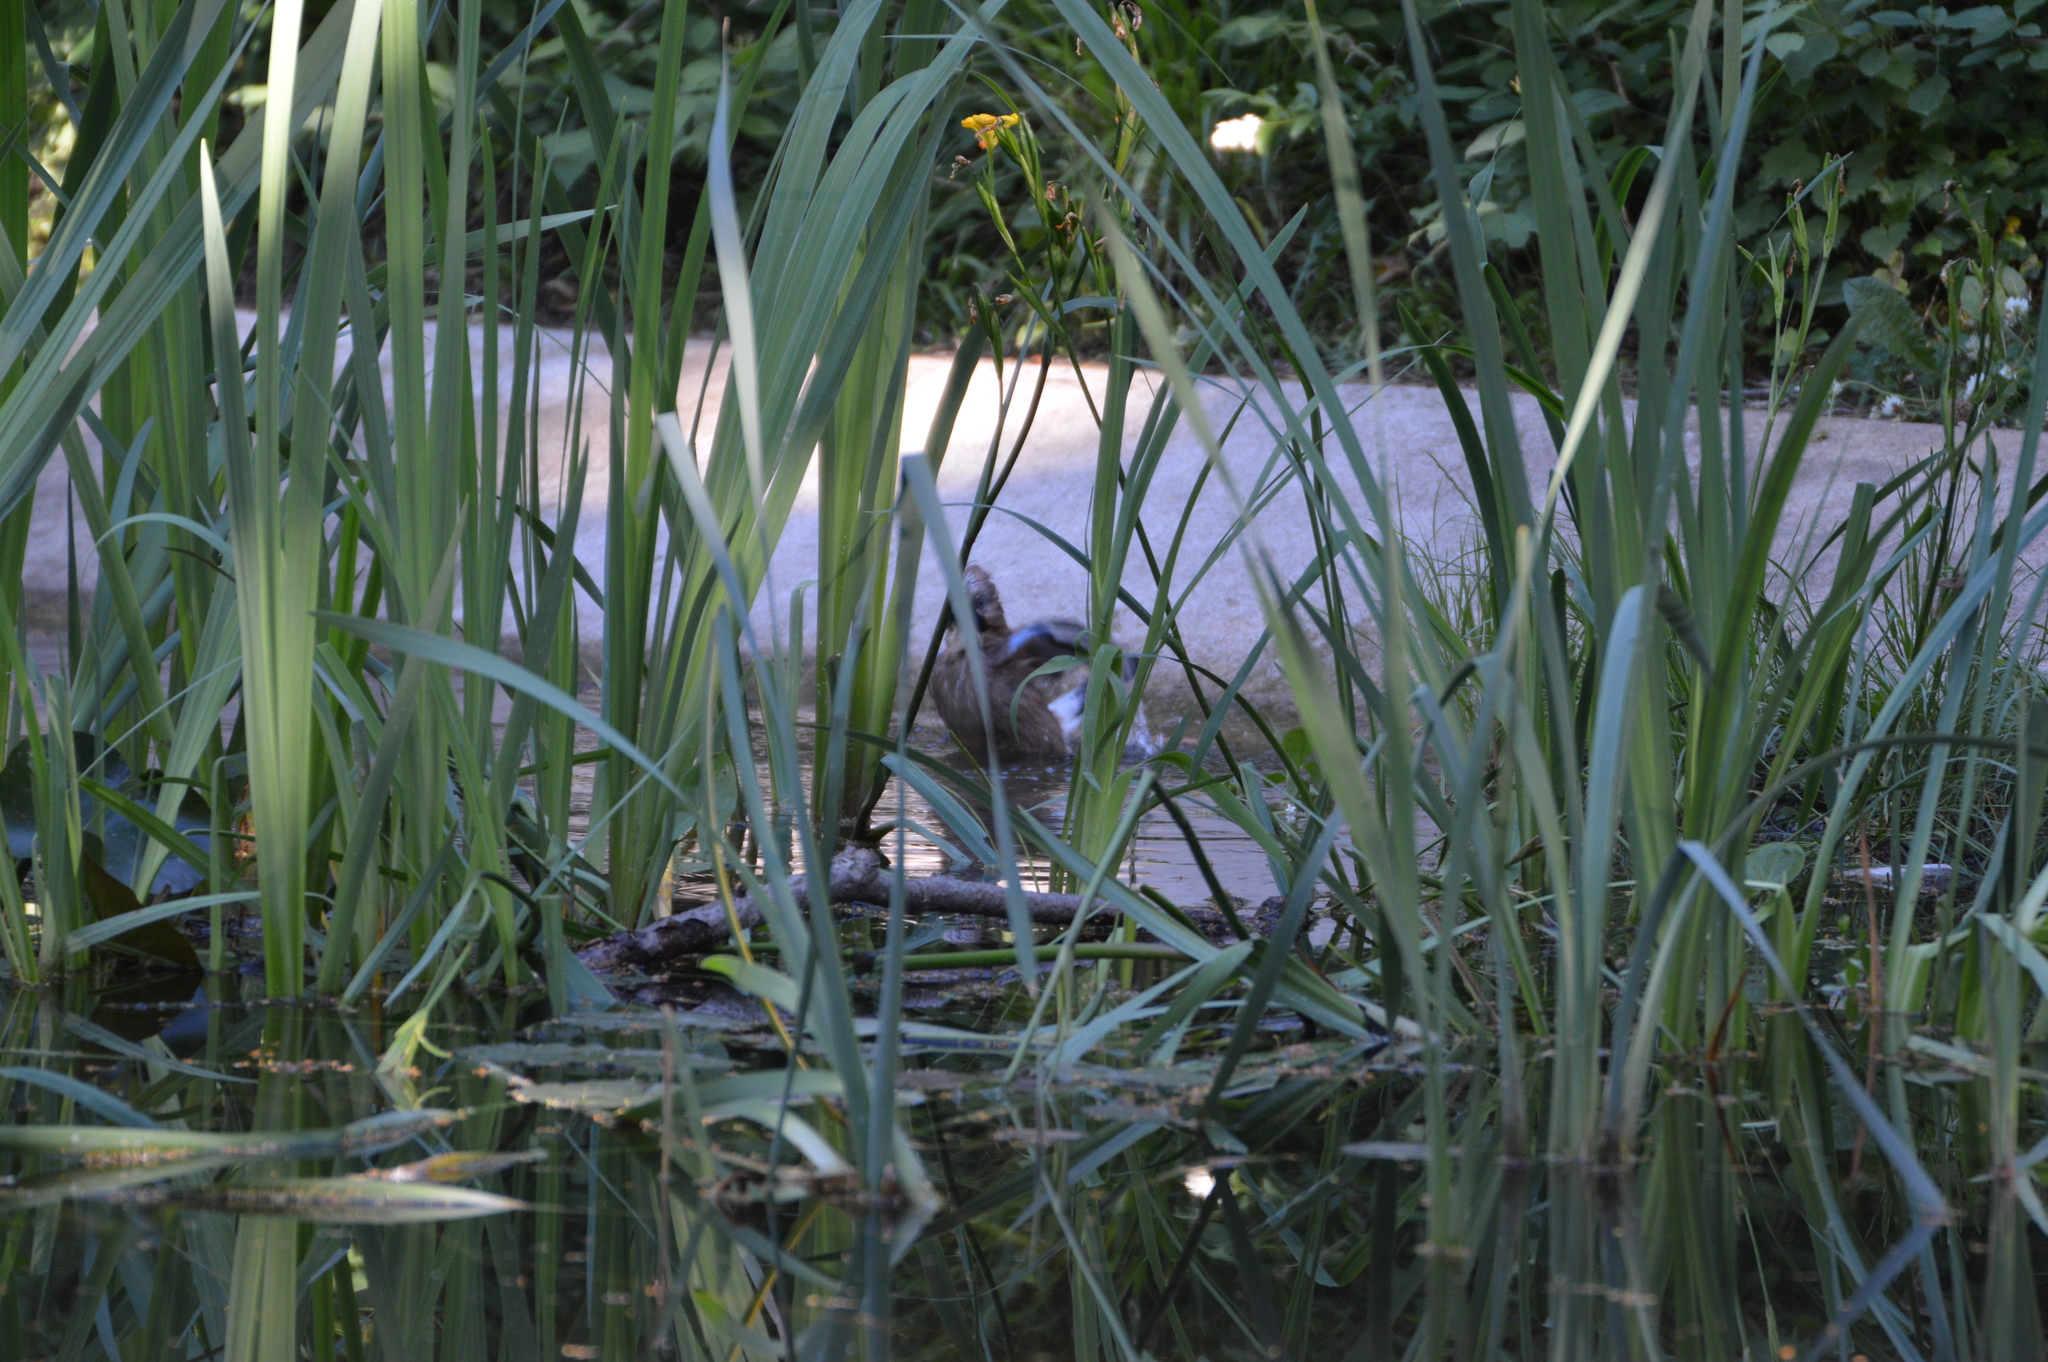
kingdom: Animalia
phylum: Chordata
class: Aves
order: Passeriformes
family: Corvidae
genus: Garrulus
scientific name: Garrulus glandarius
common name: Eurasian jay
